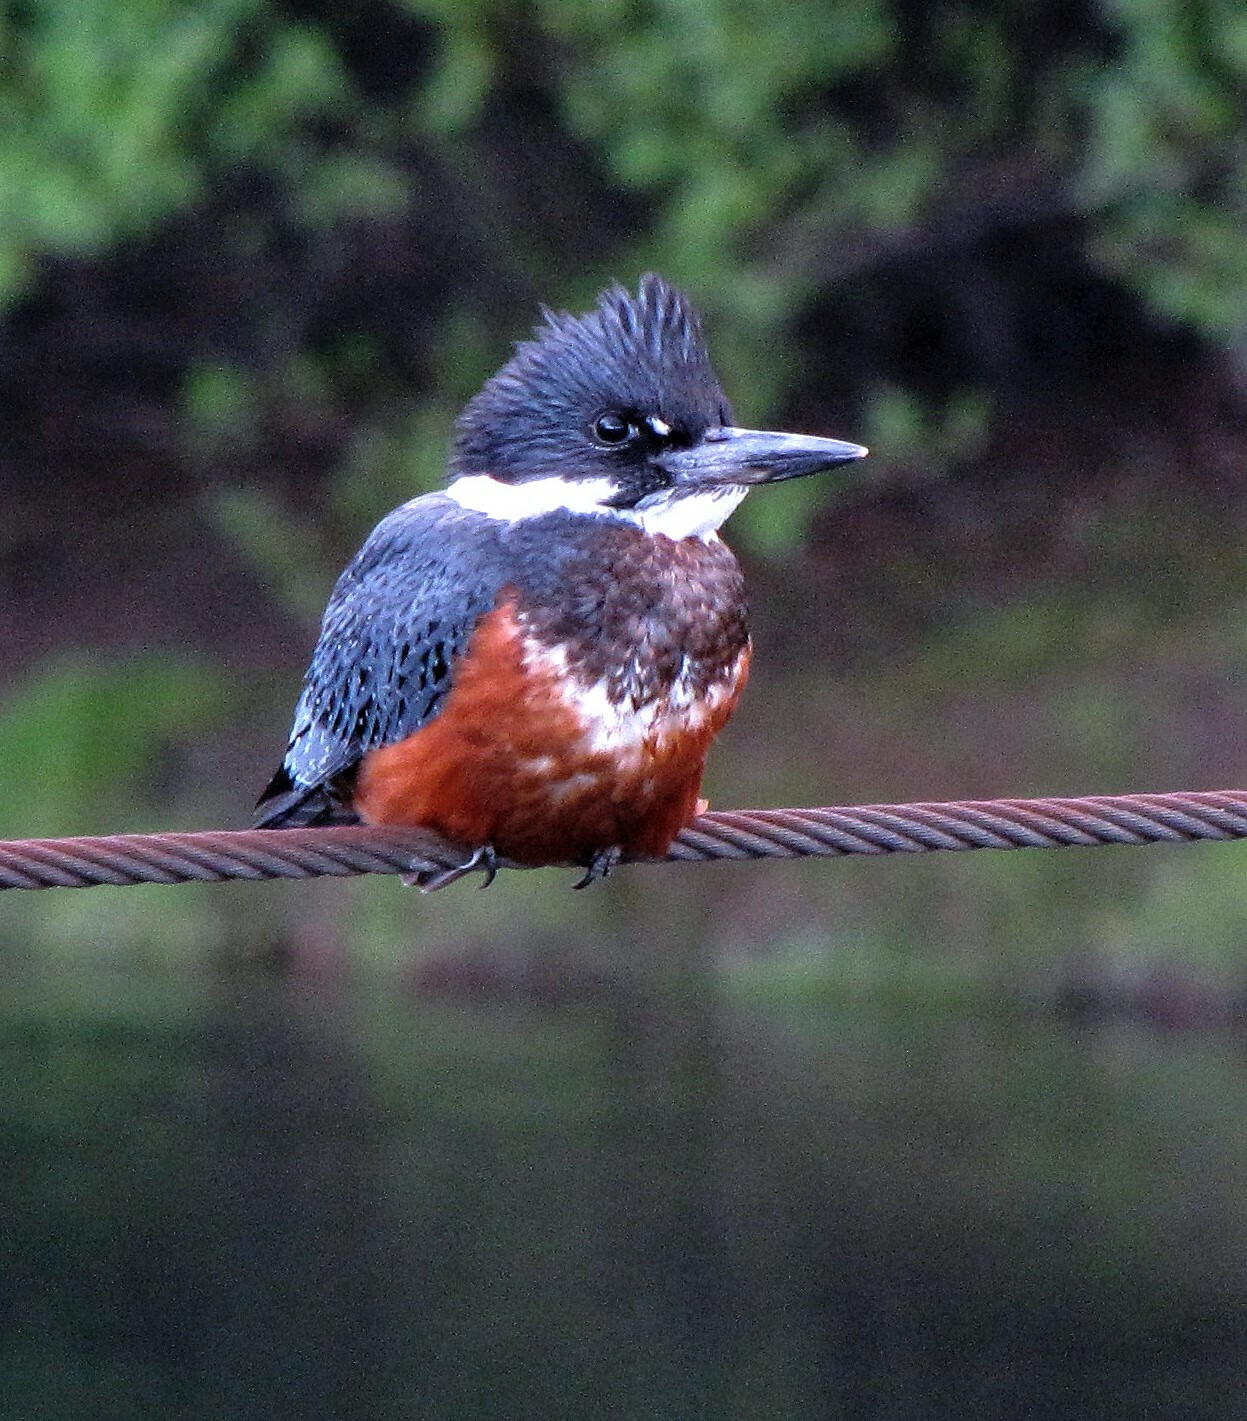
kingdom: Animalia
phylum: Chordata
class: Aves
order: Coraciiformes
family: Alcedinidae
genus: Megaceryle
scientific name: Megaceryle torquata
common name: Ringed kingfisher
